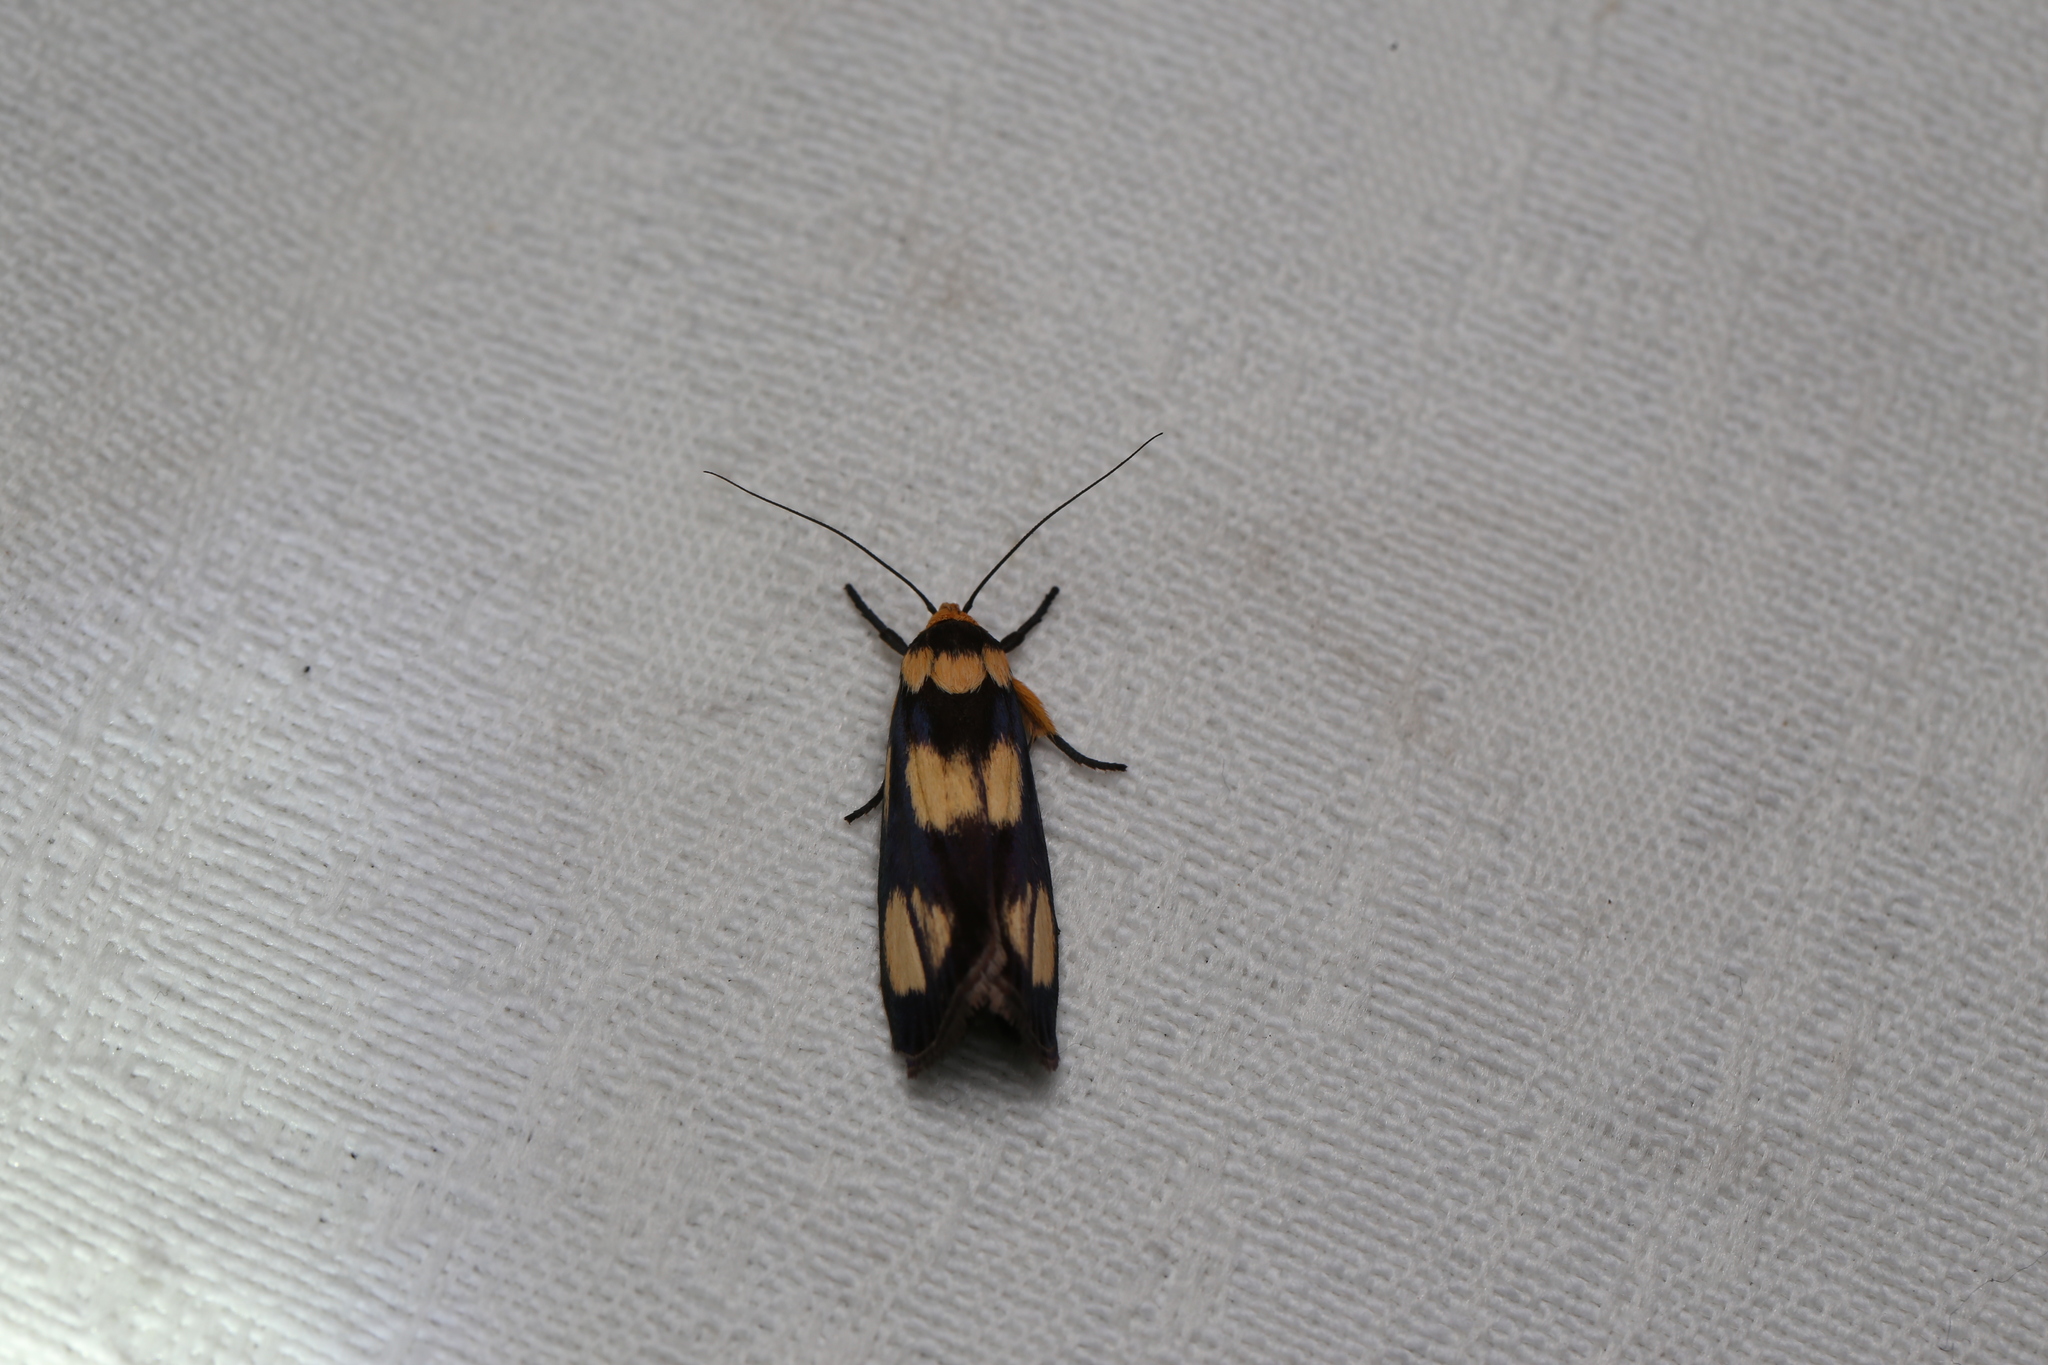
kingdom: Animalia
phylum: Arthropoda
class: Insecta
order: Lepidoptera
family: Erebidae
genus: Asura
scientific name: Asura bipars
